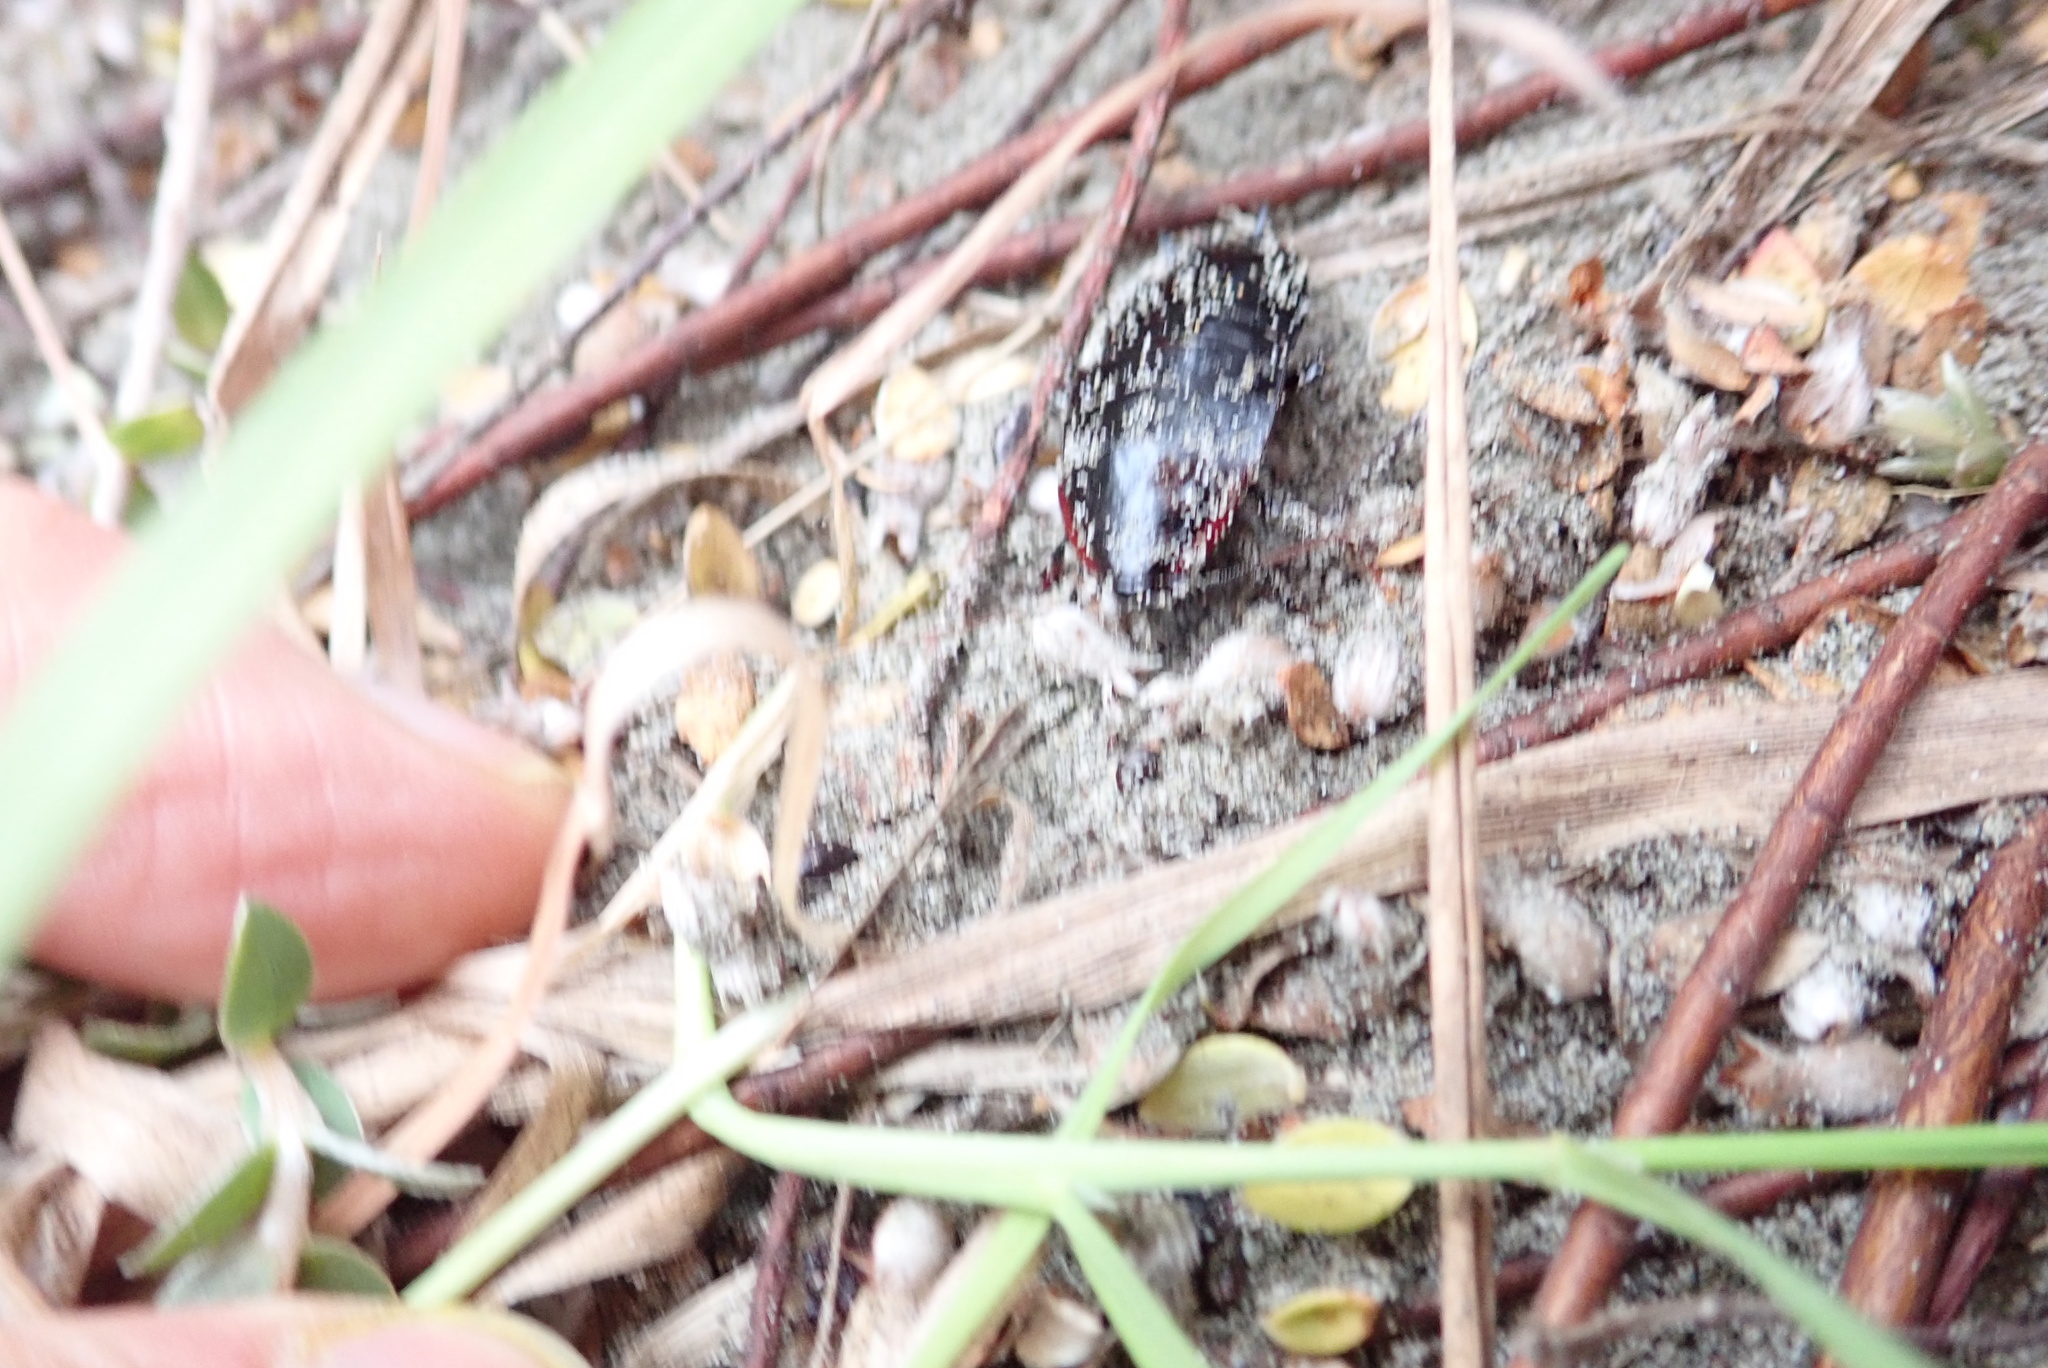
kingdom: Animalia
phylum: Arthropoda
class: Insecta
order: Blattodea
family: Blattidae
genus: Maoriblatta
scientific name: Maoriblatta novaeseelandiae
